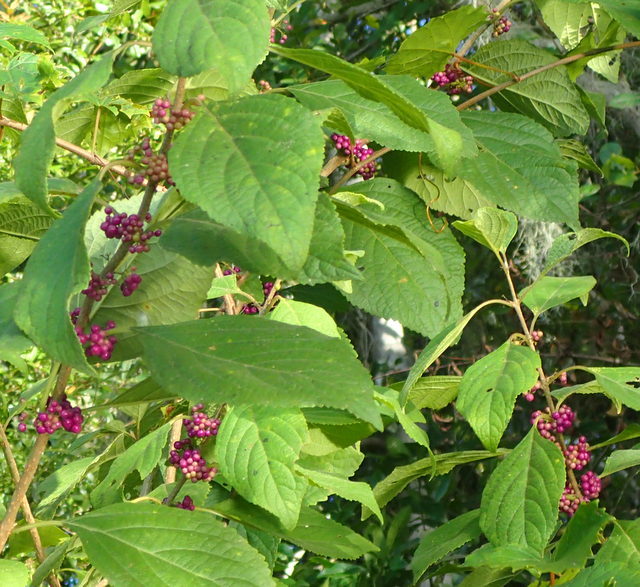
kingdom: Plantae
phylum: Tracheophyta
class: Magnoliopsida
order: Lamiales
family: Lamiaceae
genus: Callicarpa
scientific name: Callicarpa americana
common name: American beautyberry
